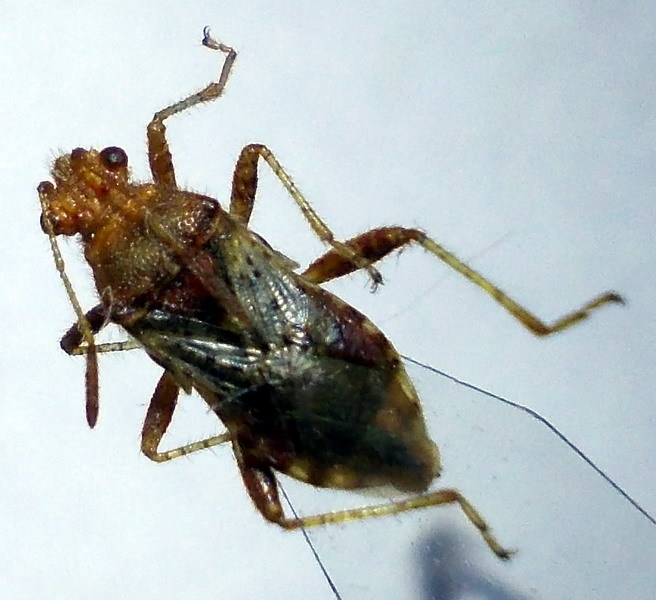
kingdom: Animalia
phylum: Arthropoda
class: Insecta
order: Hemiptera
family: Rhopalidae
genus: Rhopalus
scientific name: Rhopalus subrufus
